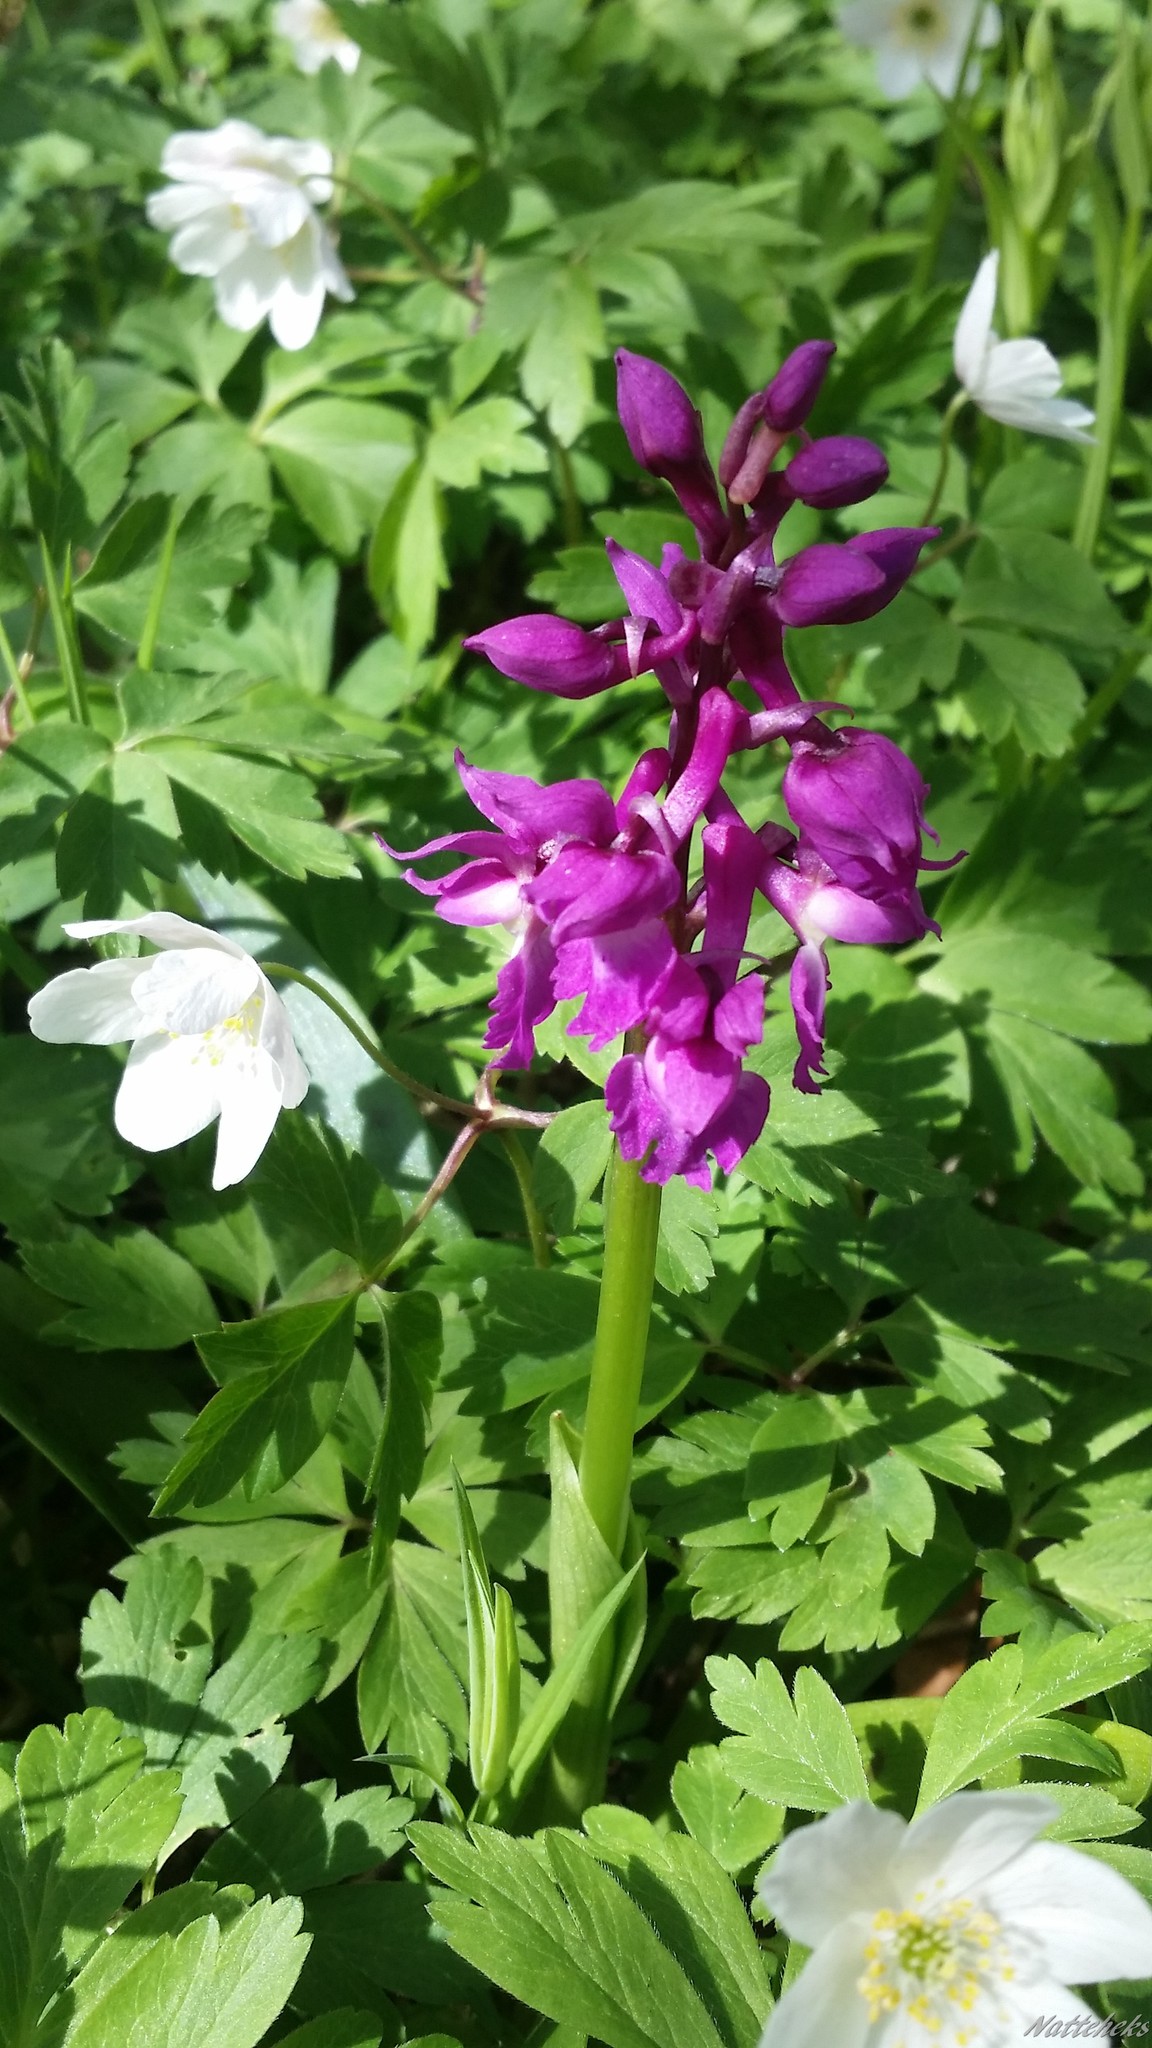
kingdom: Plantae
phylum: Tracheophyta
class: Liliopsida
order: Asparagales
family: Orchidaceae
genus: Orchis
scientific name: Orchis mascula
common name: Early-purple orchid
